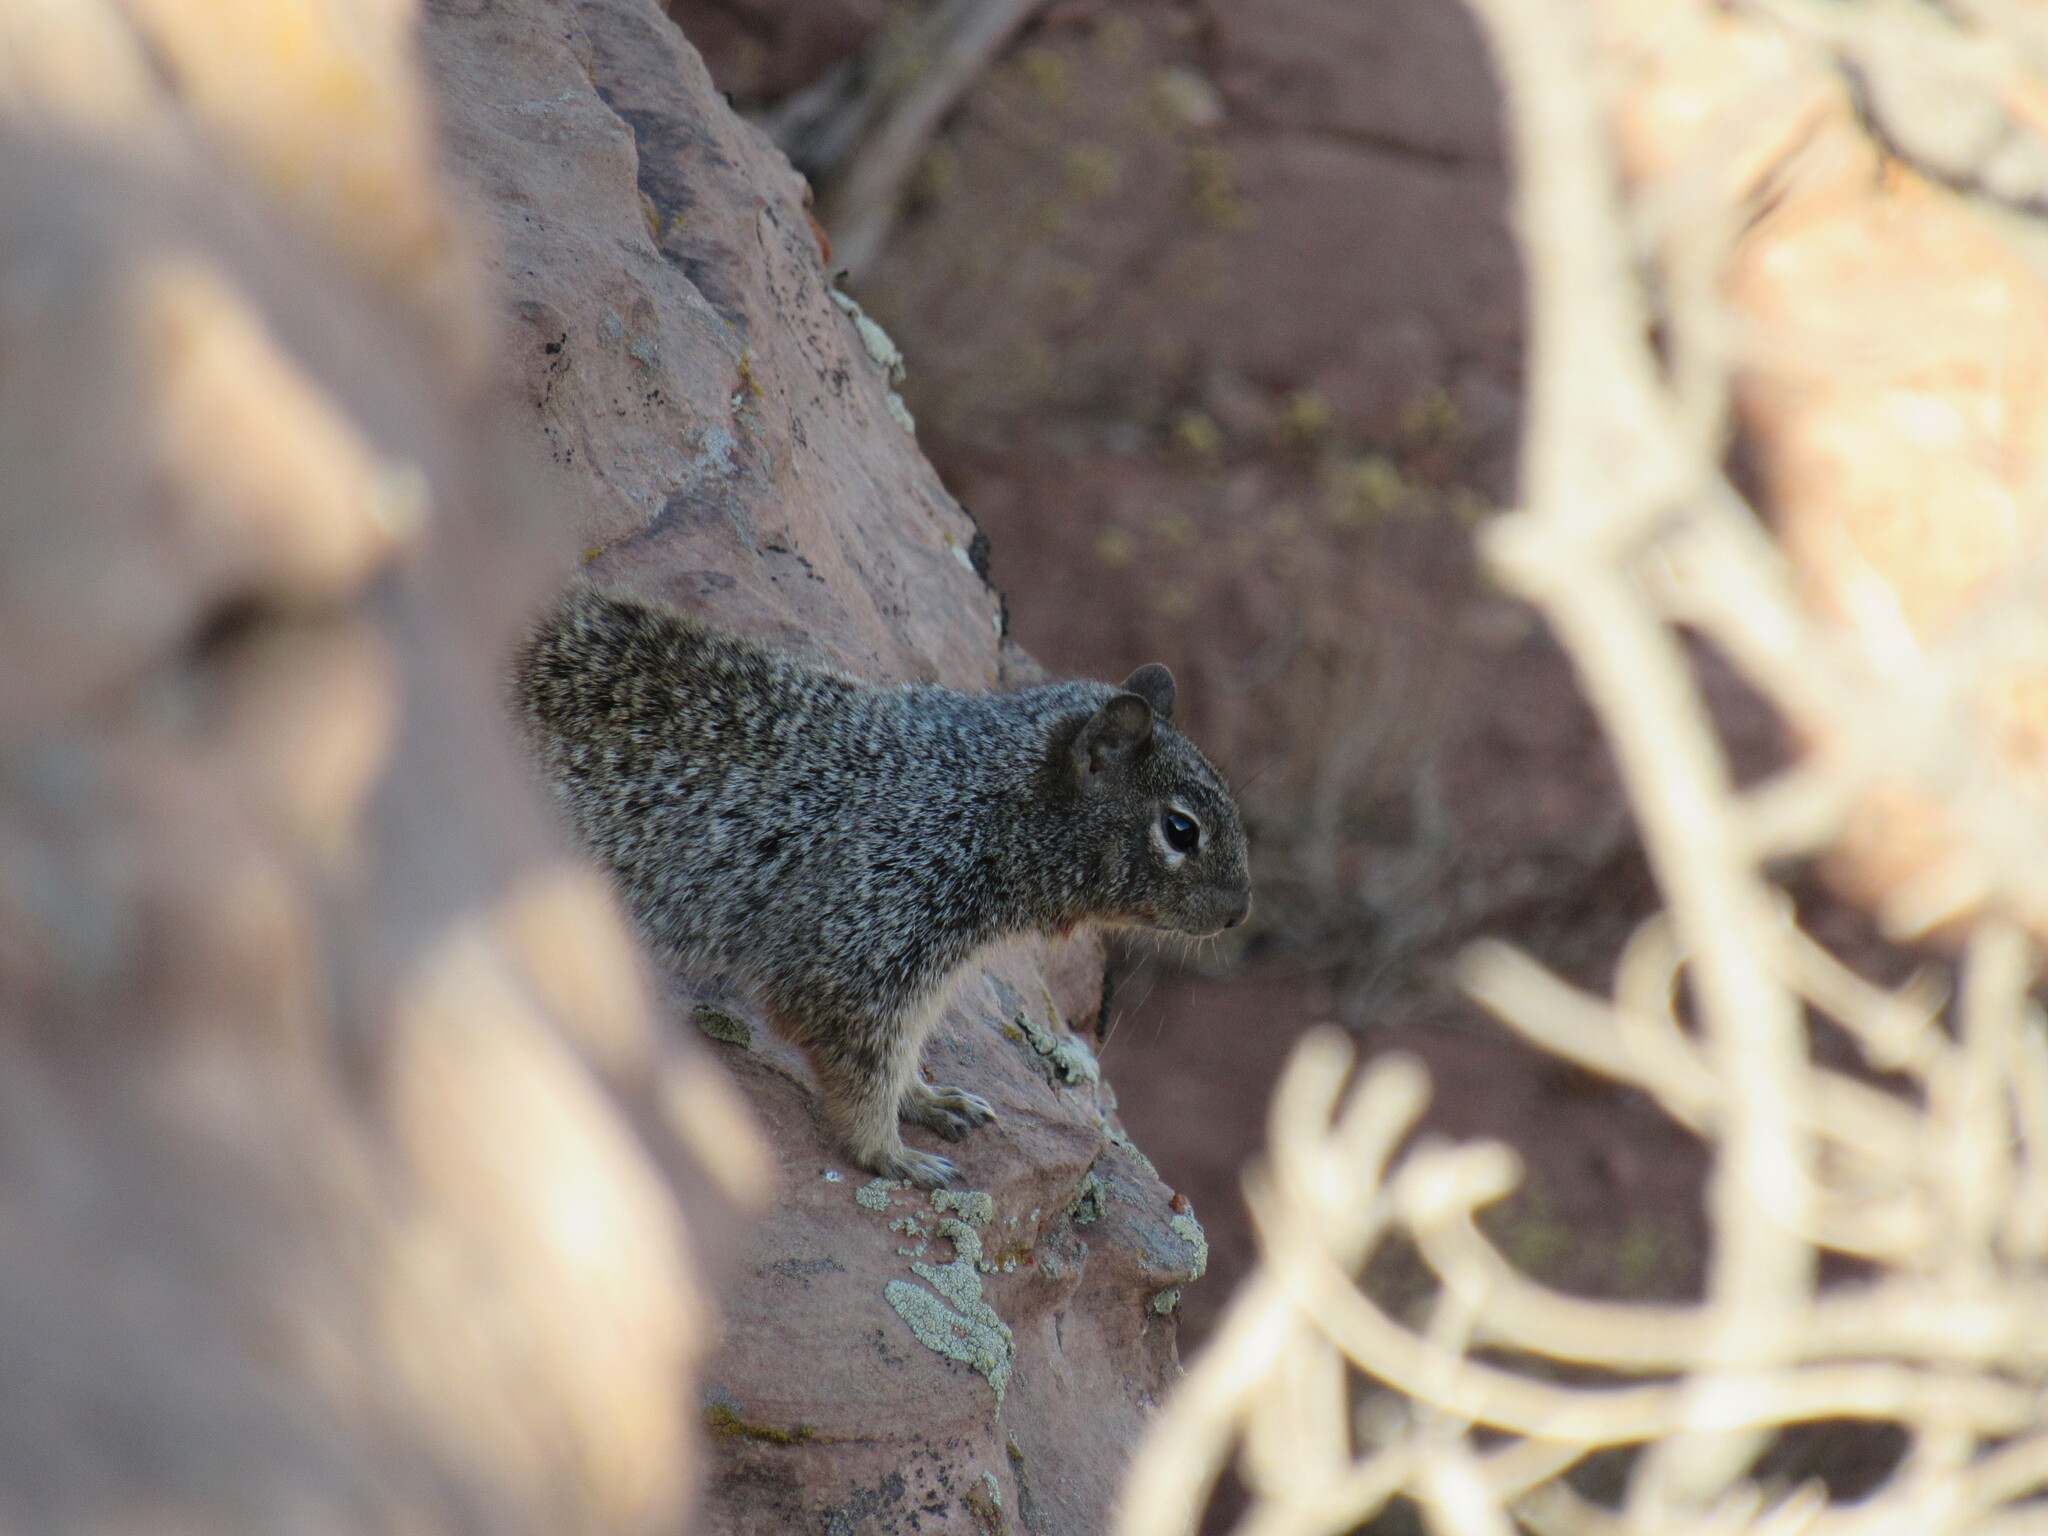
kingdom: Animalia
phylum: Chordata
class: Mammalia
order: Rodentia
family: Sciuridae
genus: Otospermophilus
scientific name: Otospermophilus variegatus
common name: Rock squirrel
